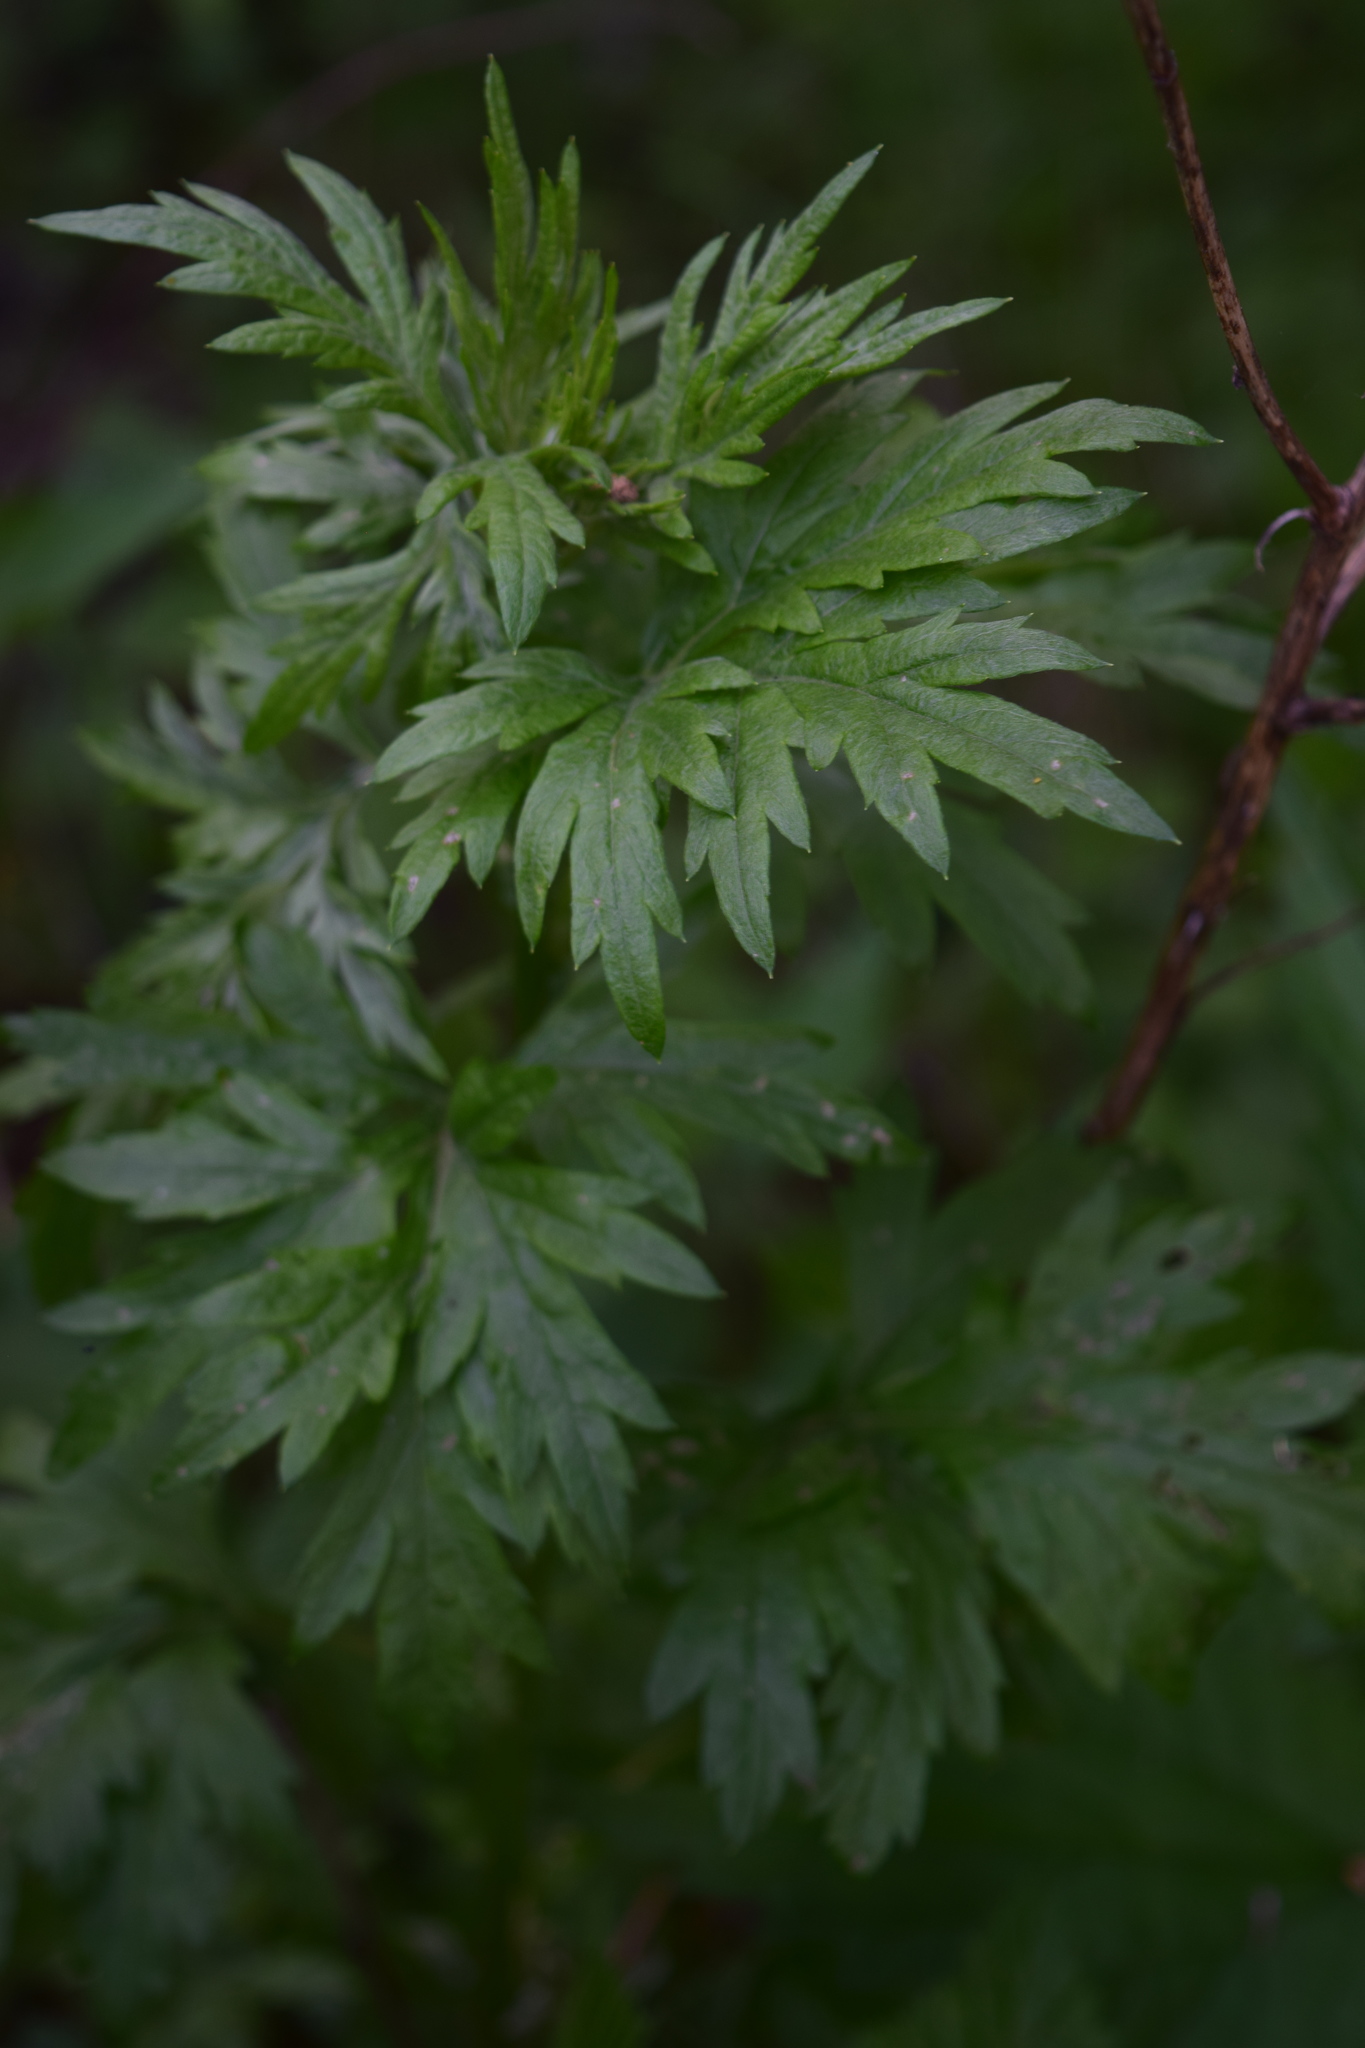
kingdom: Plantae
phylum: Tracheophyta
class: Magnoliopsida
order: Asterales
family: Asteraceae
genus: Artemisia
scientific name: Artemisia vulgaris
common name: Mugwort
